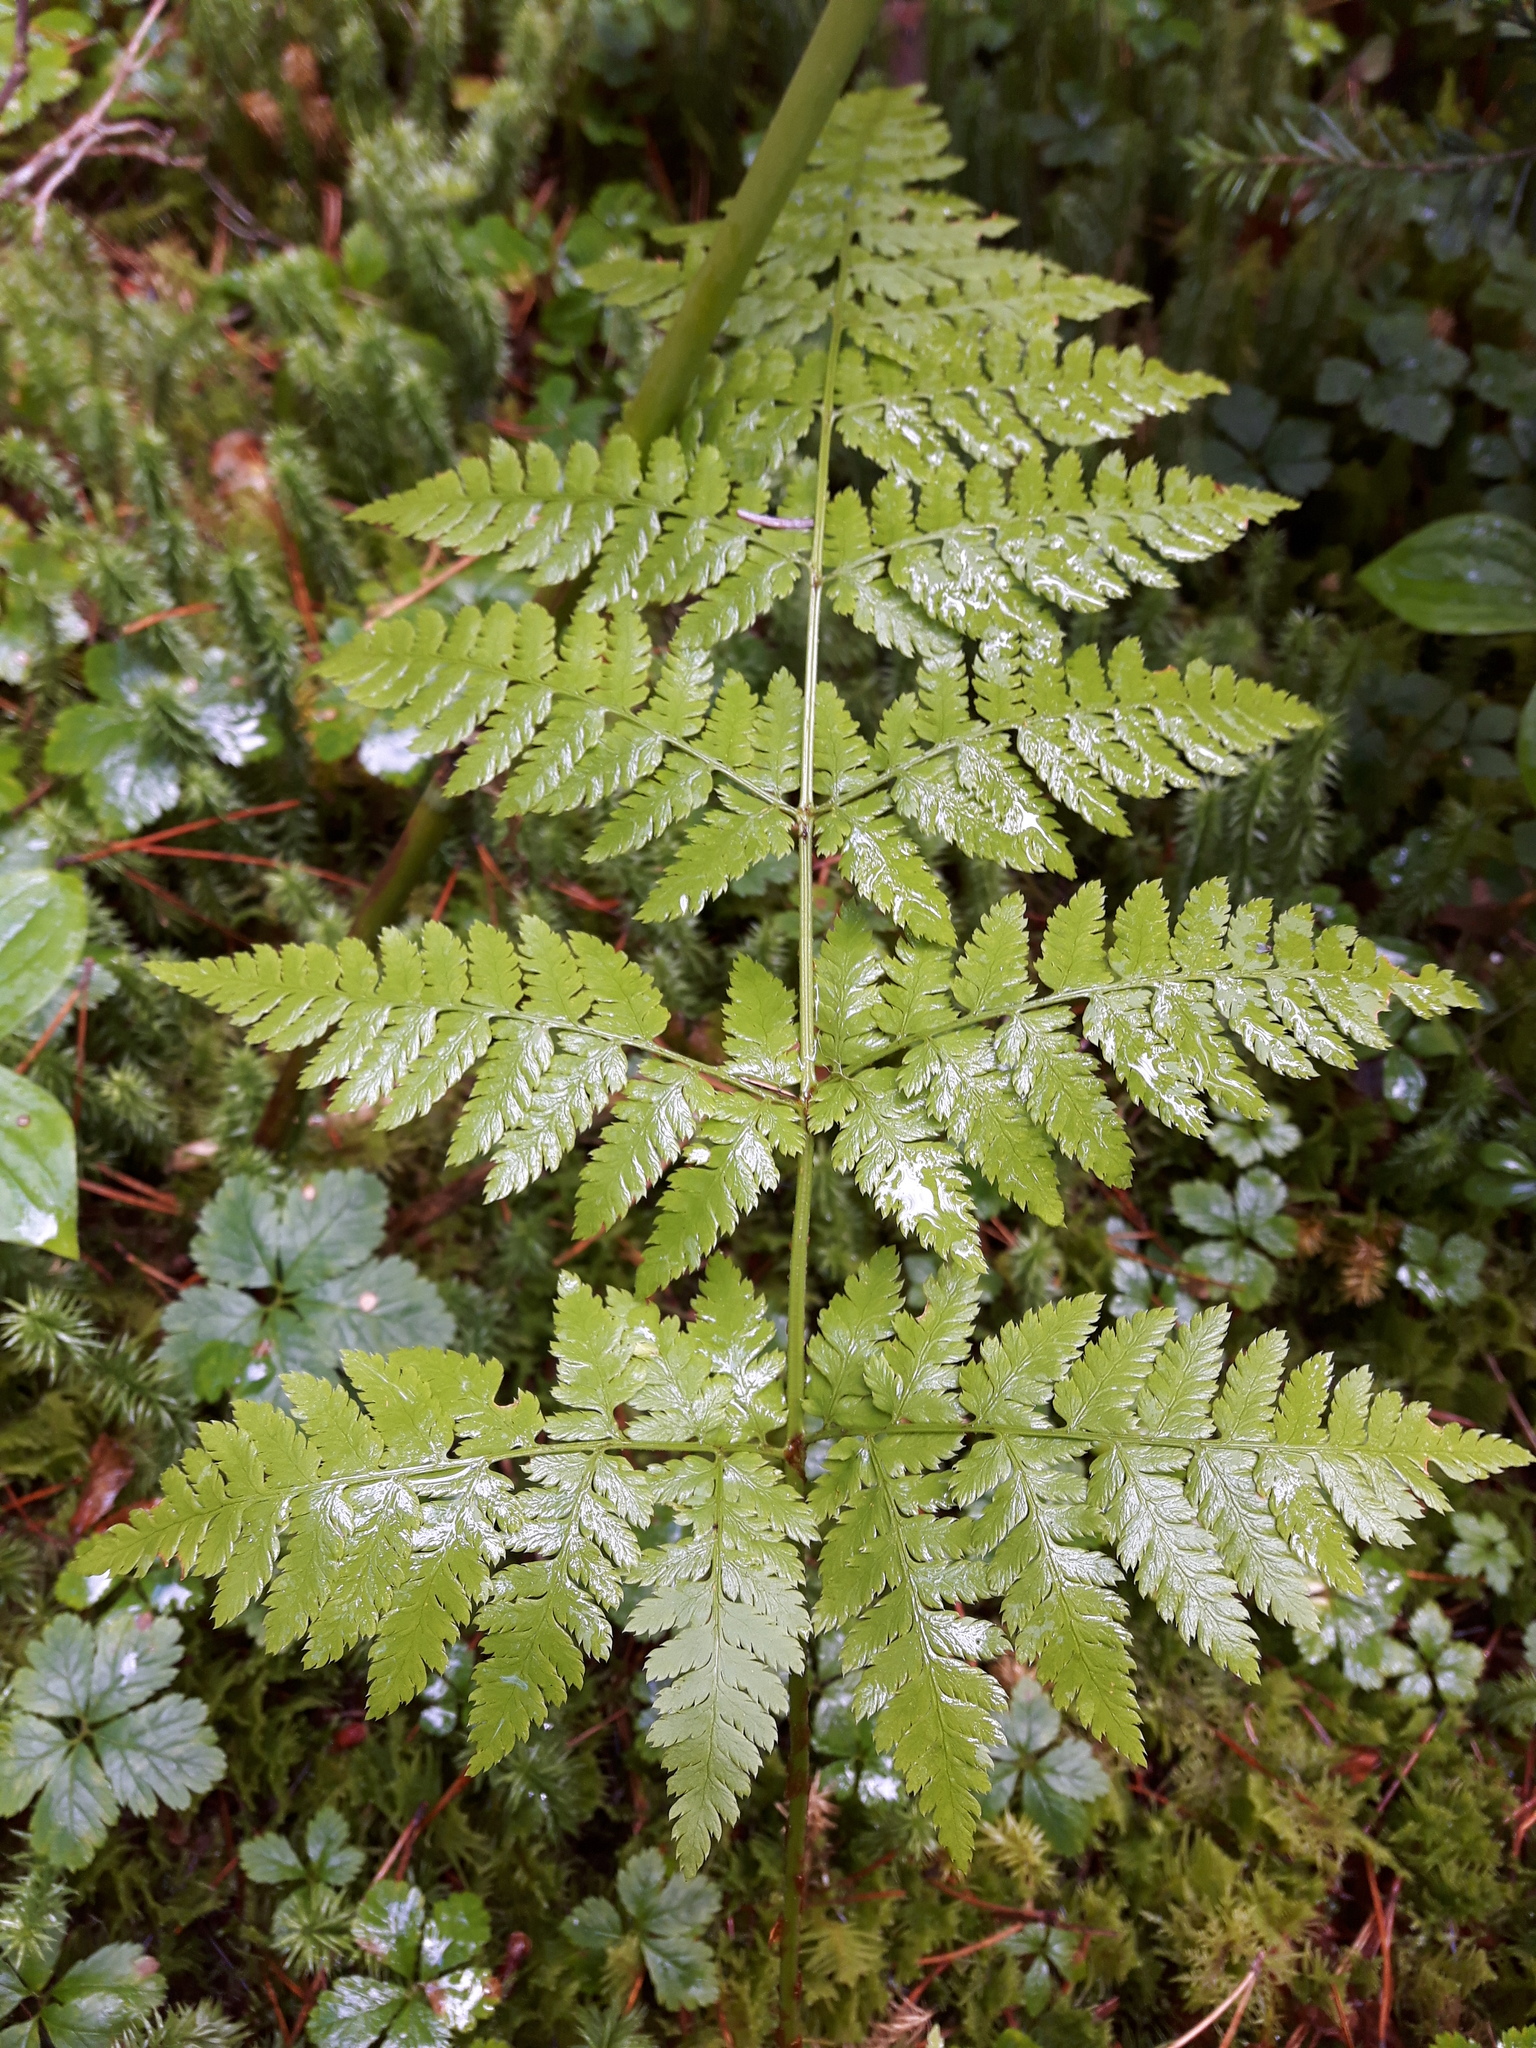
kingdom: Plantae
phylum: Tracheophyta
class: Polypodiopsida
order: Polypodiales
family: Dryopteridaceae
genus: Dryopteris
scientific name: Dryopteris expansa
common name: Northern buckler fern
